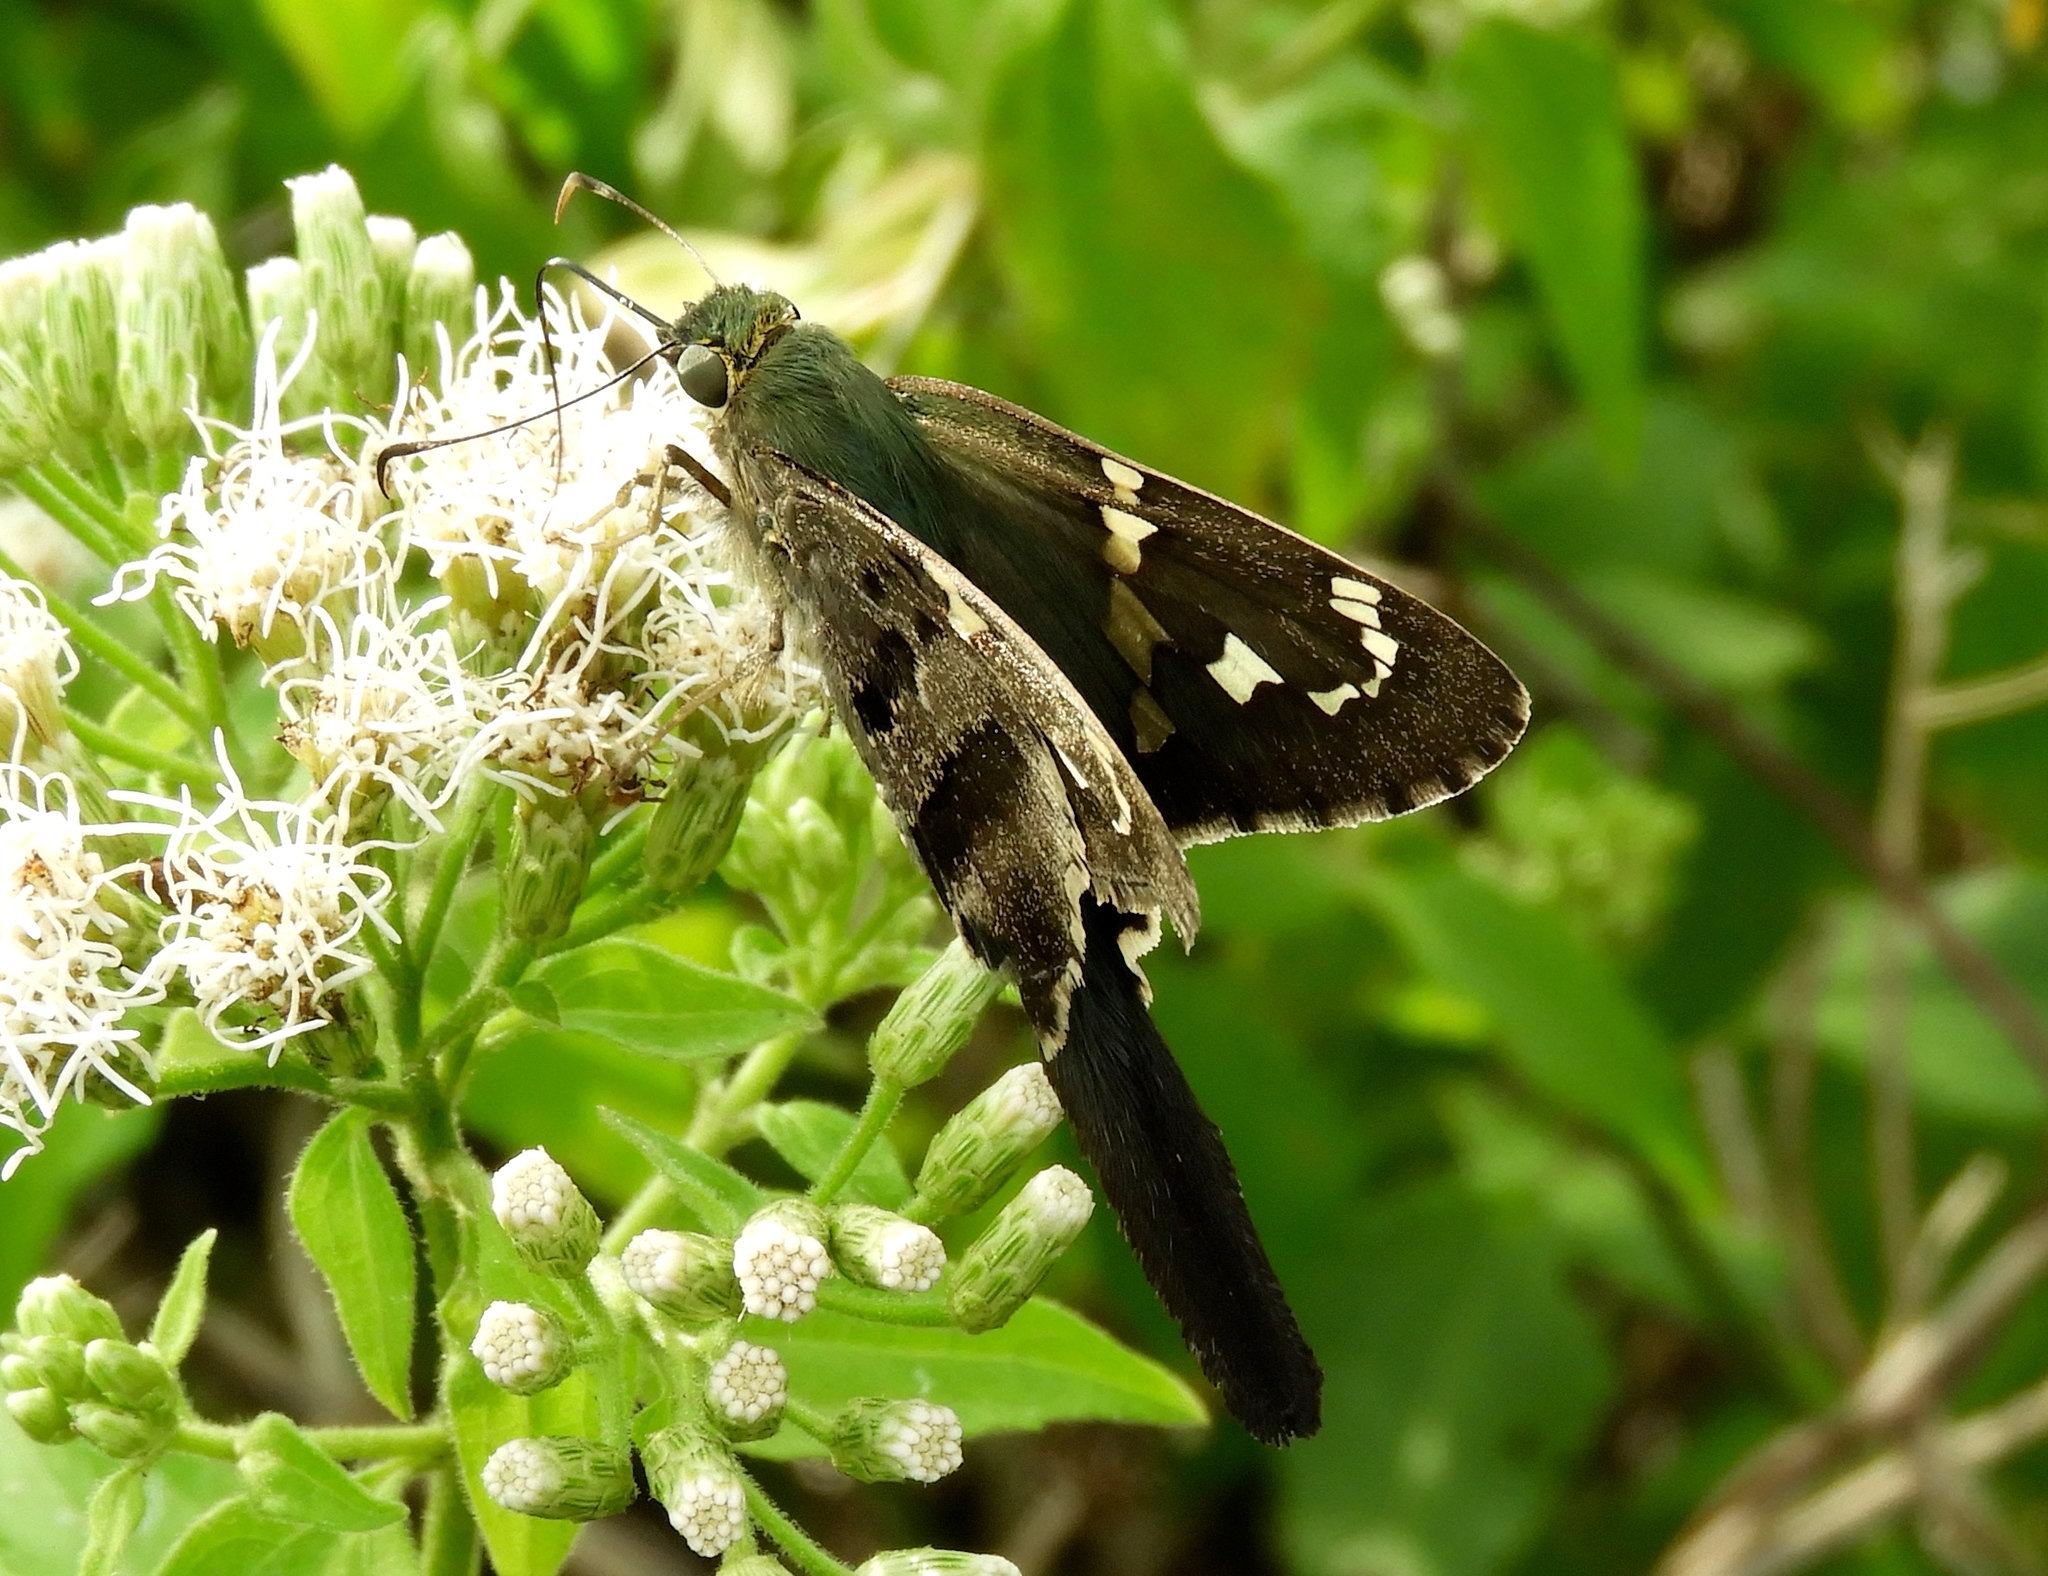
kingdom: Animalia
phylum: Arthropoda
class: Insecta
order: Lepidoptera
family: Hesperiidae
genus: Urbanus
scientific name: Urbanus proteus
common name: Long-tailed skipper
